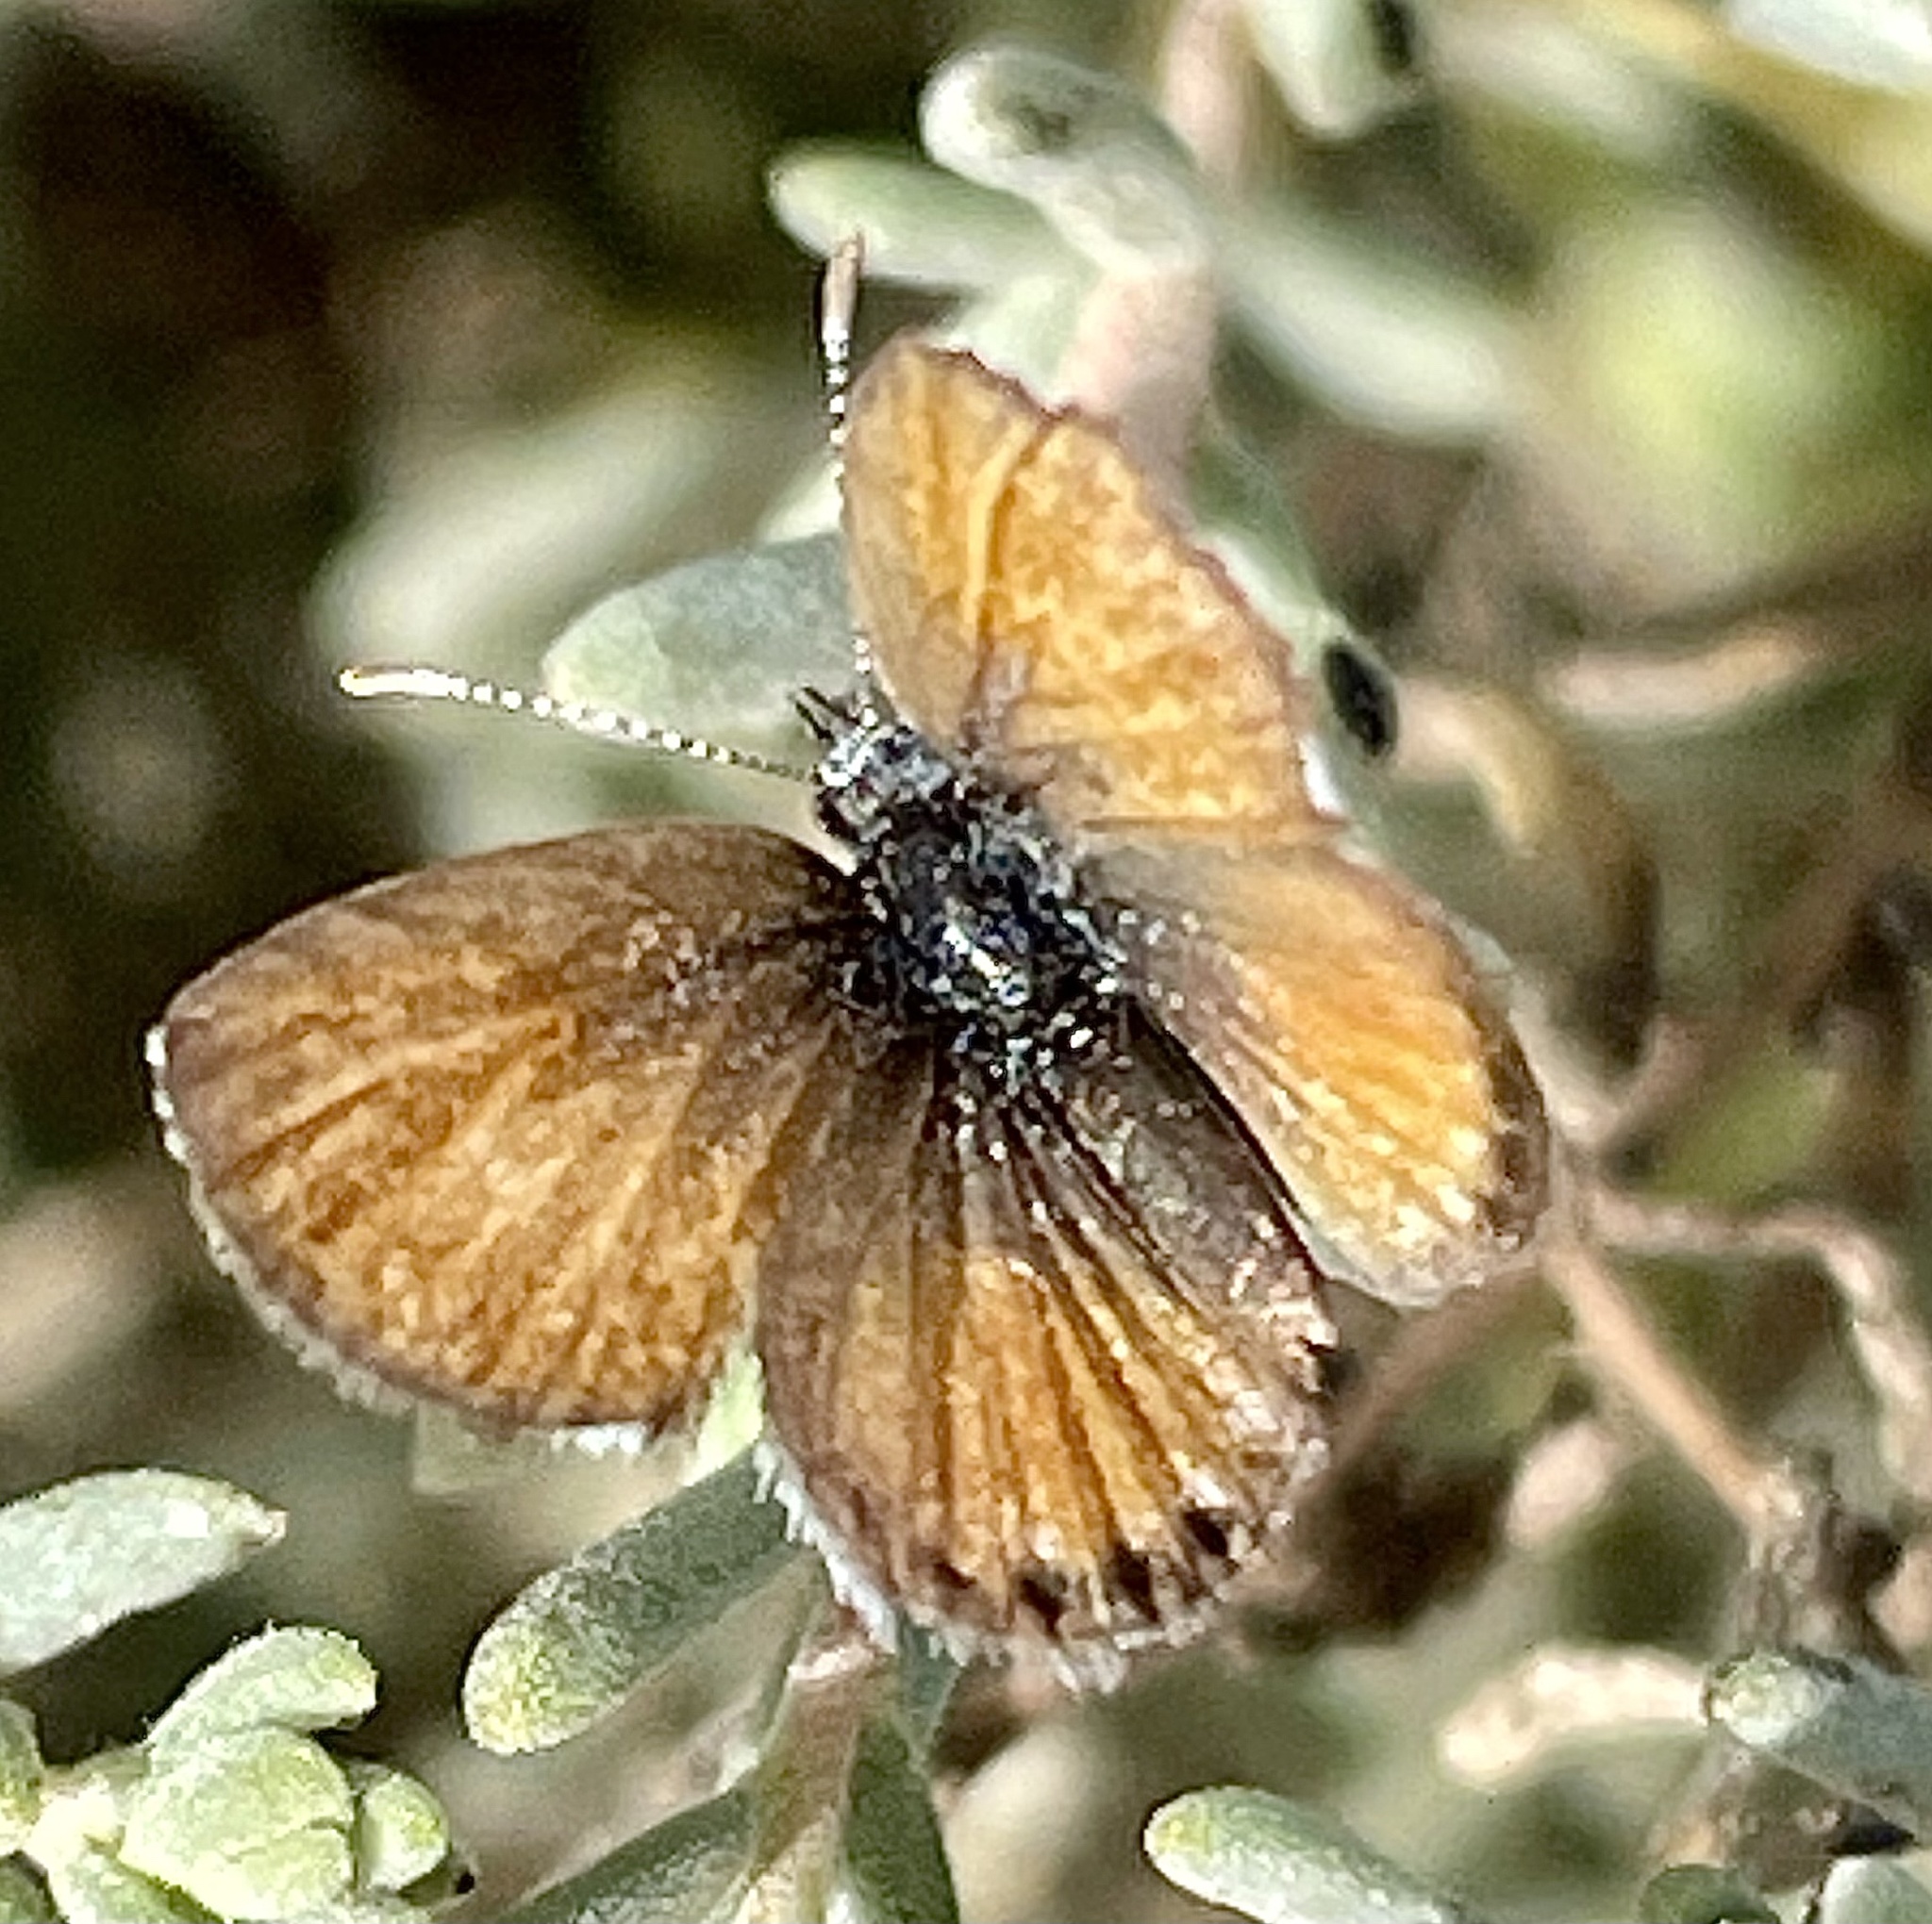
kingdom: Animalia
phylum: Arthropoda
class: Insecta
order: Lepidoptera
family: Lycaenidae
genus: Brephidium
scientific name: Brephidium exilis
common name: Pygmy blue
